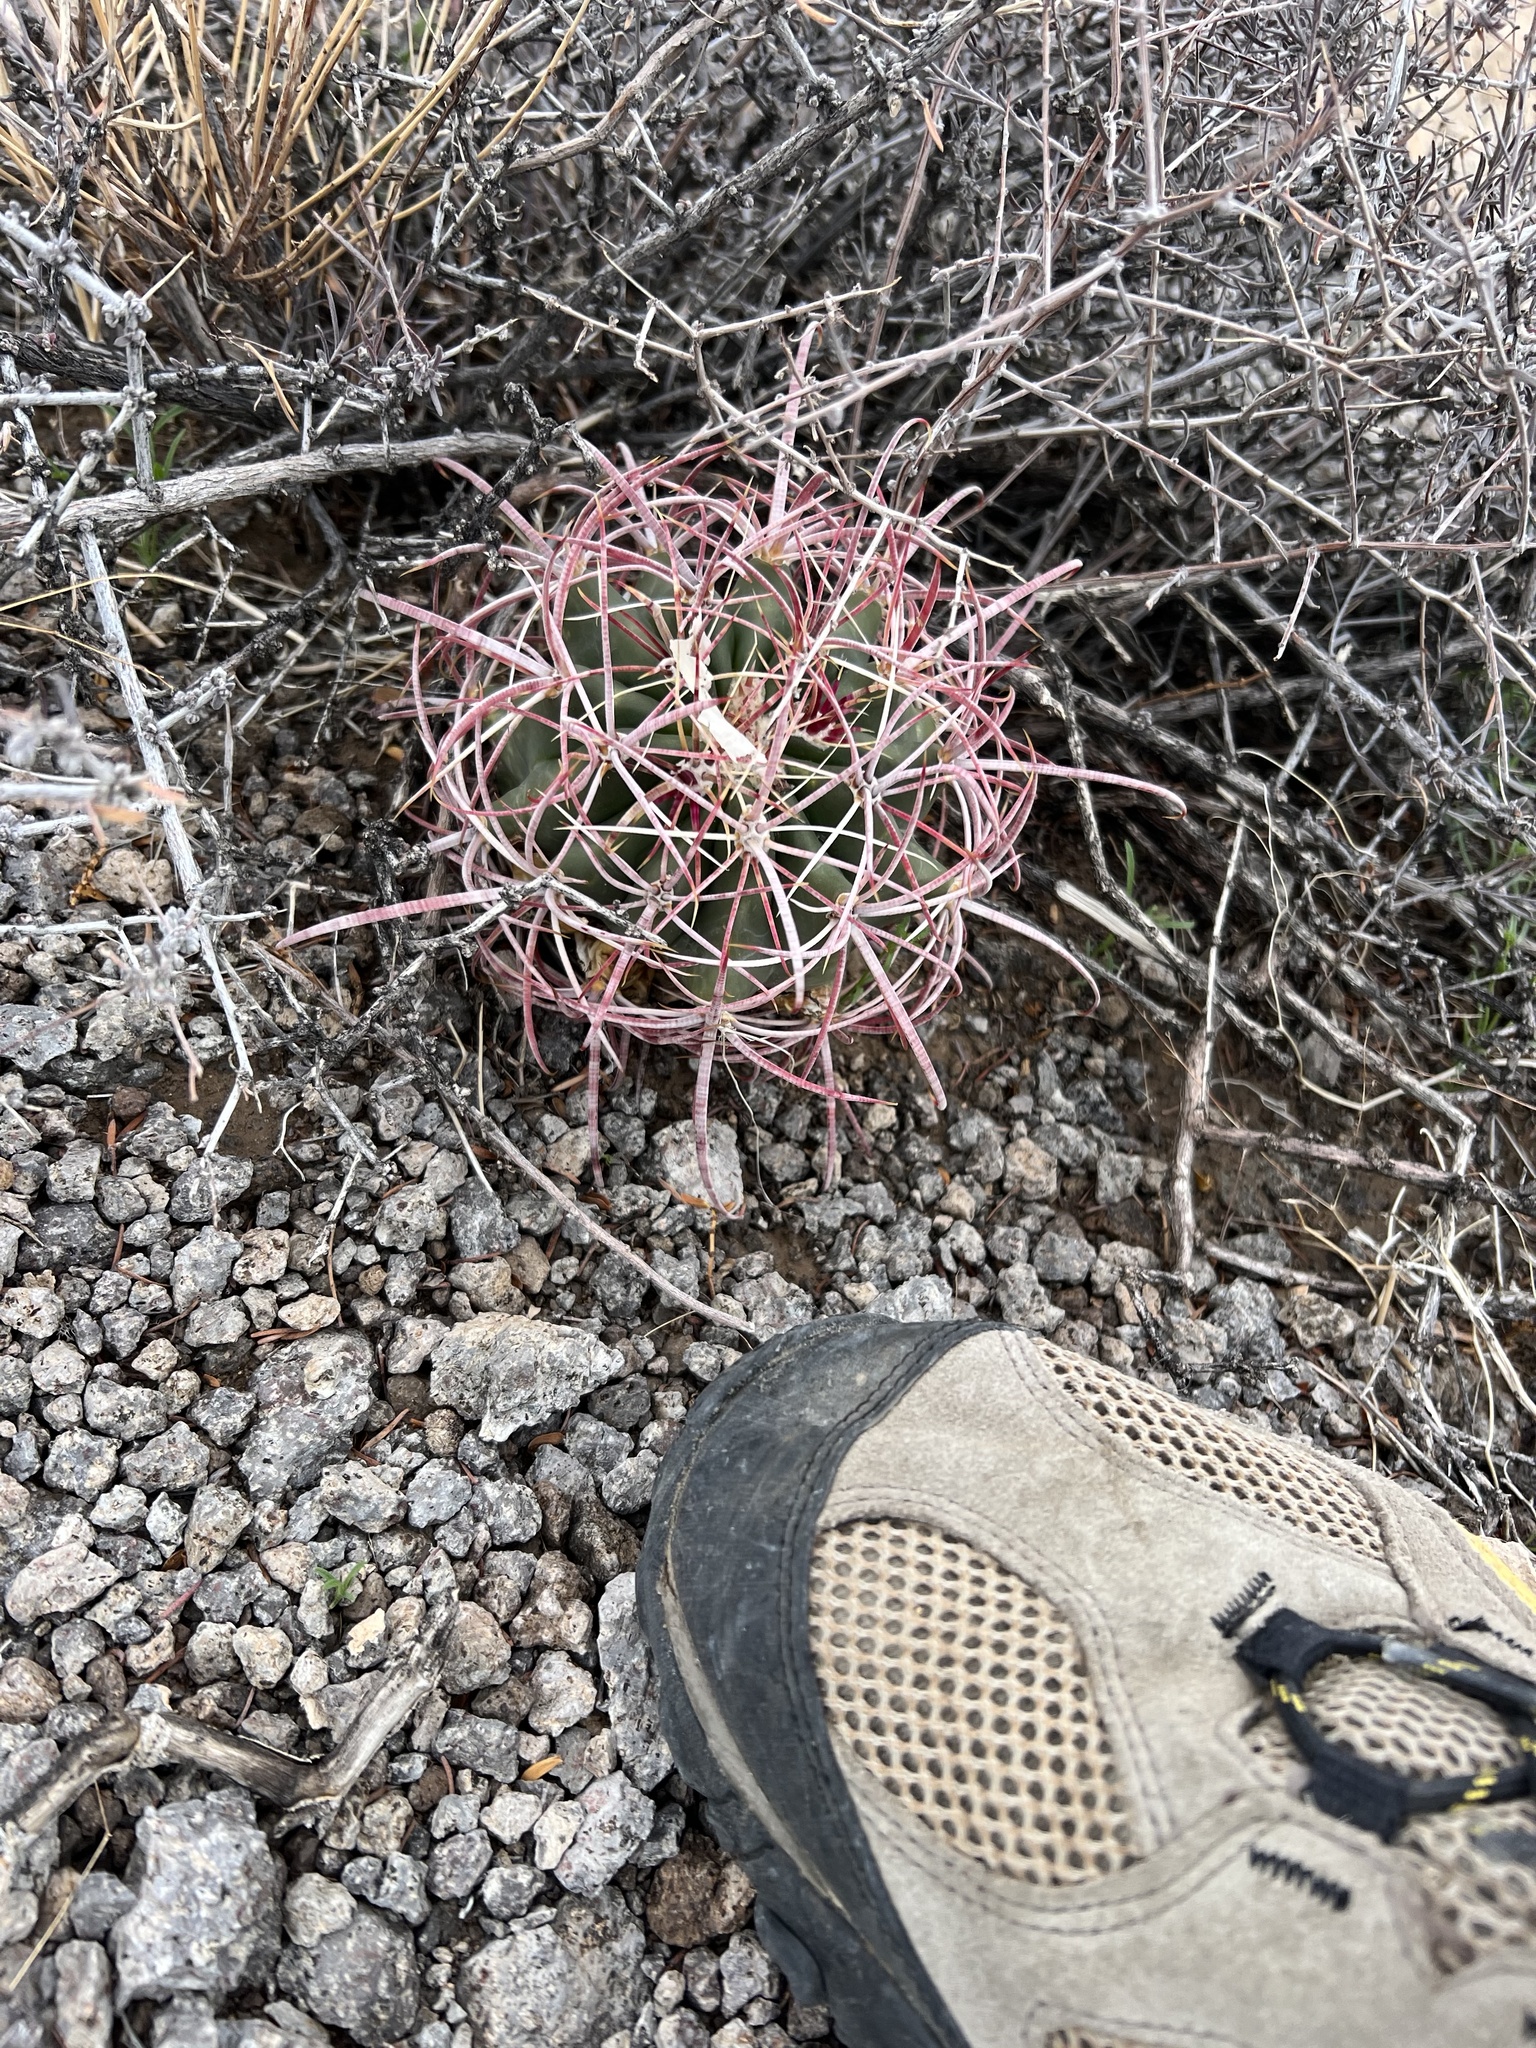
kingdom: Plantae
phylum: Tracheophyta
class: Magnoliopsida
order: Caryophyllales
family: Cactaceae
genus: Ferocactus
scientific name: Ferocactus cylindraceus
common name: California barrel cactus
